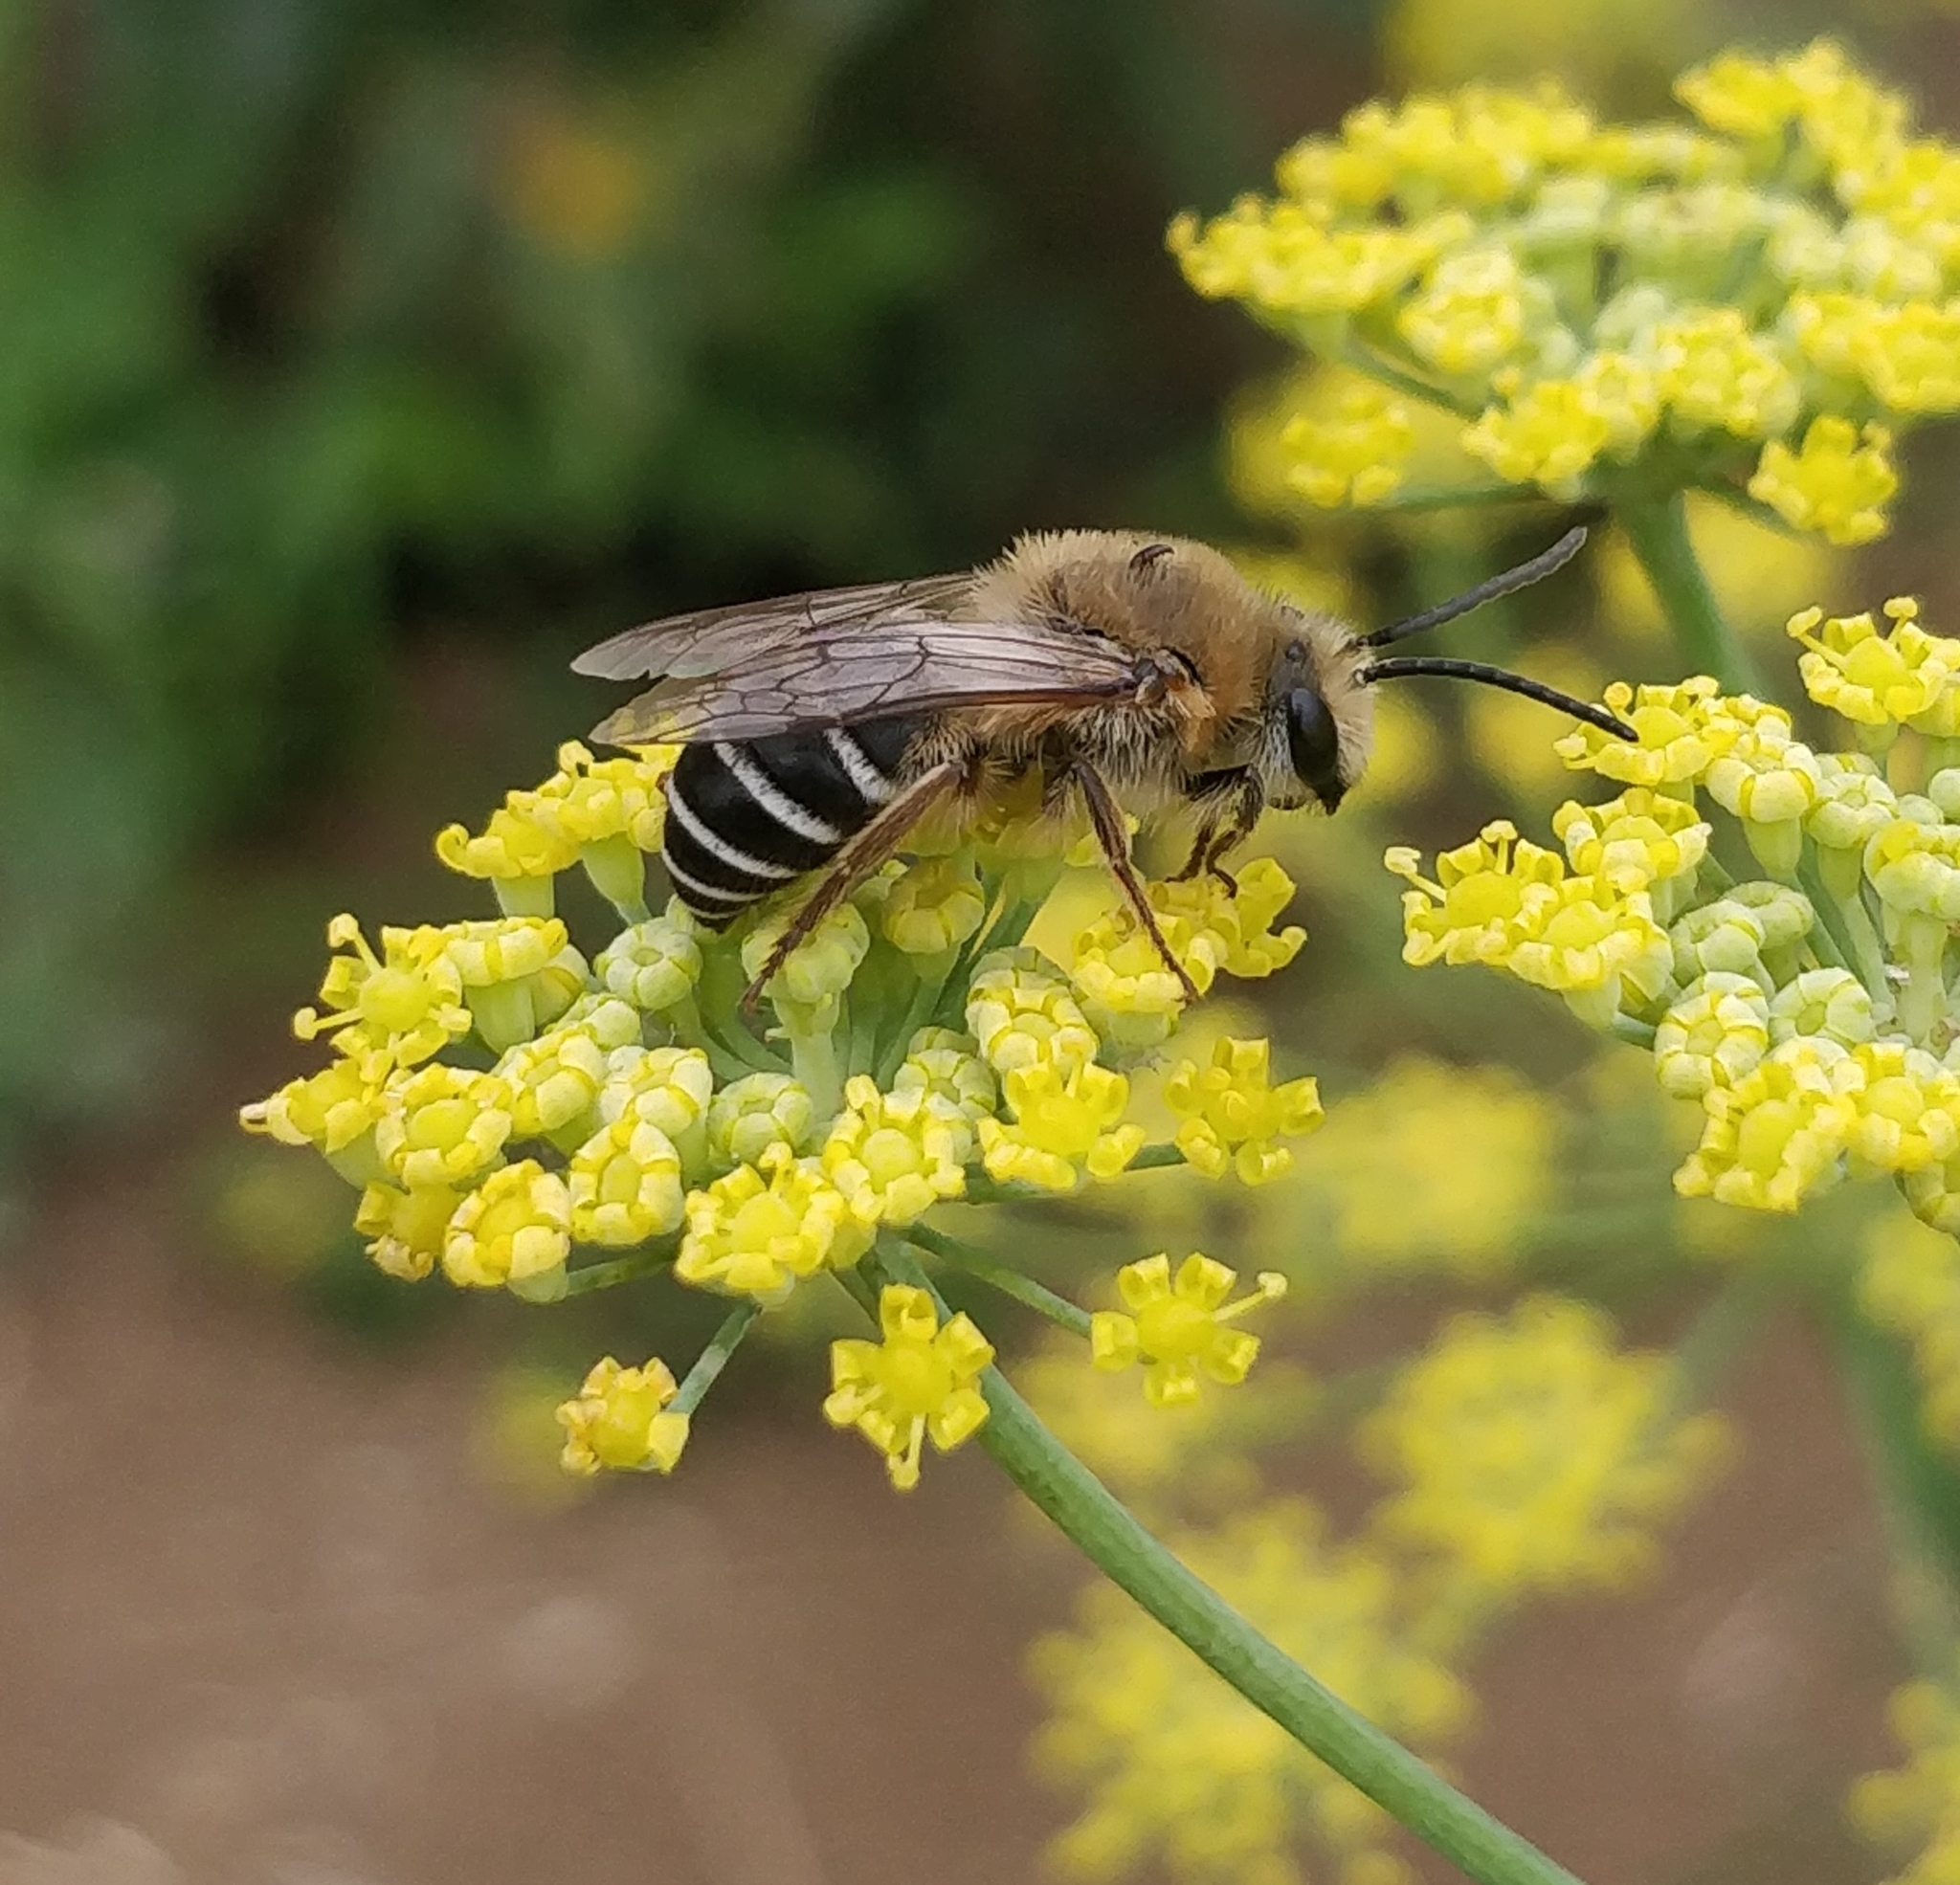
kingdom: Animalia
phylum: Arthropoda
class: Insecta
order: Hymenoptera
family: Colletidae
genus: Colletes
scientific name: Colletes dimidiatus
